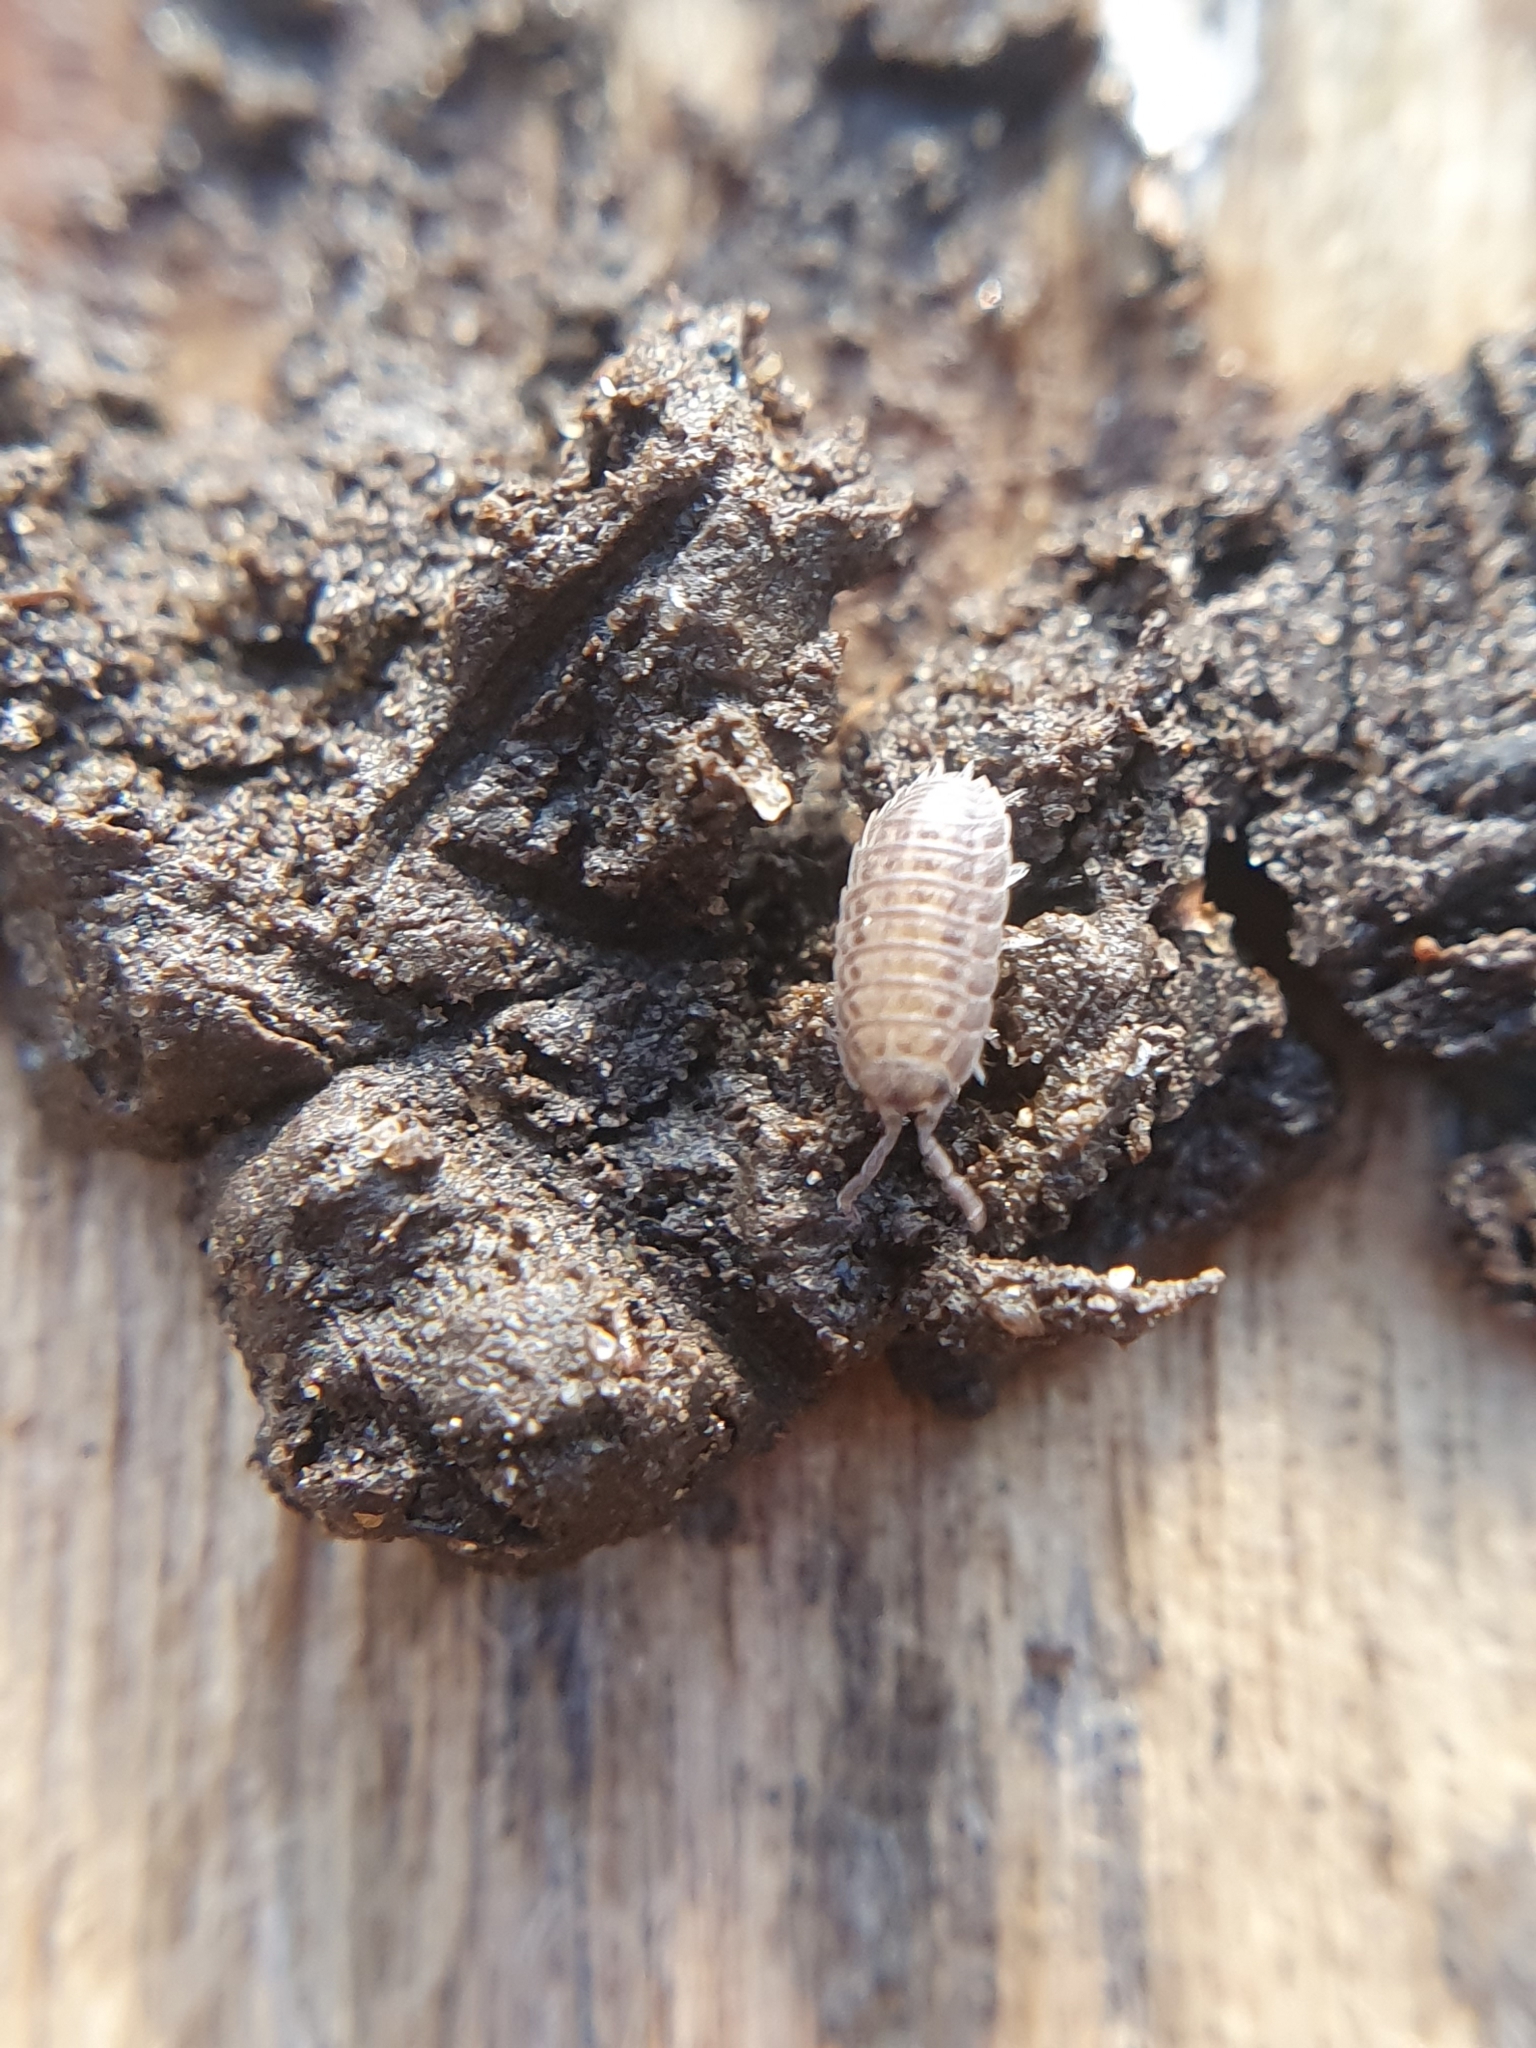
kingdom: Animalia
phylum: Arthropoda
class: Malacostraca
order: Isopoda
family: Trachelipodidae
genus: Trachelipus
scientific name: Trachelipus rathkii
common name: Isopod
